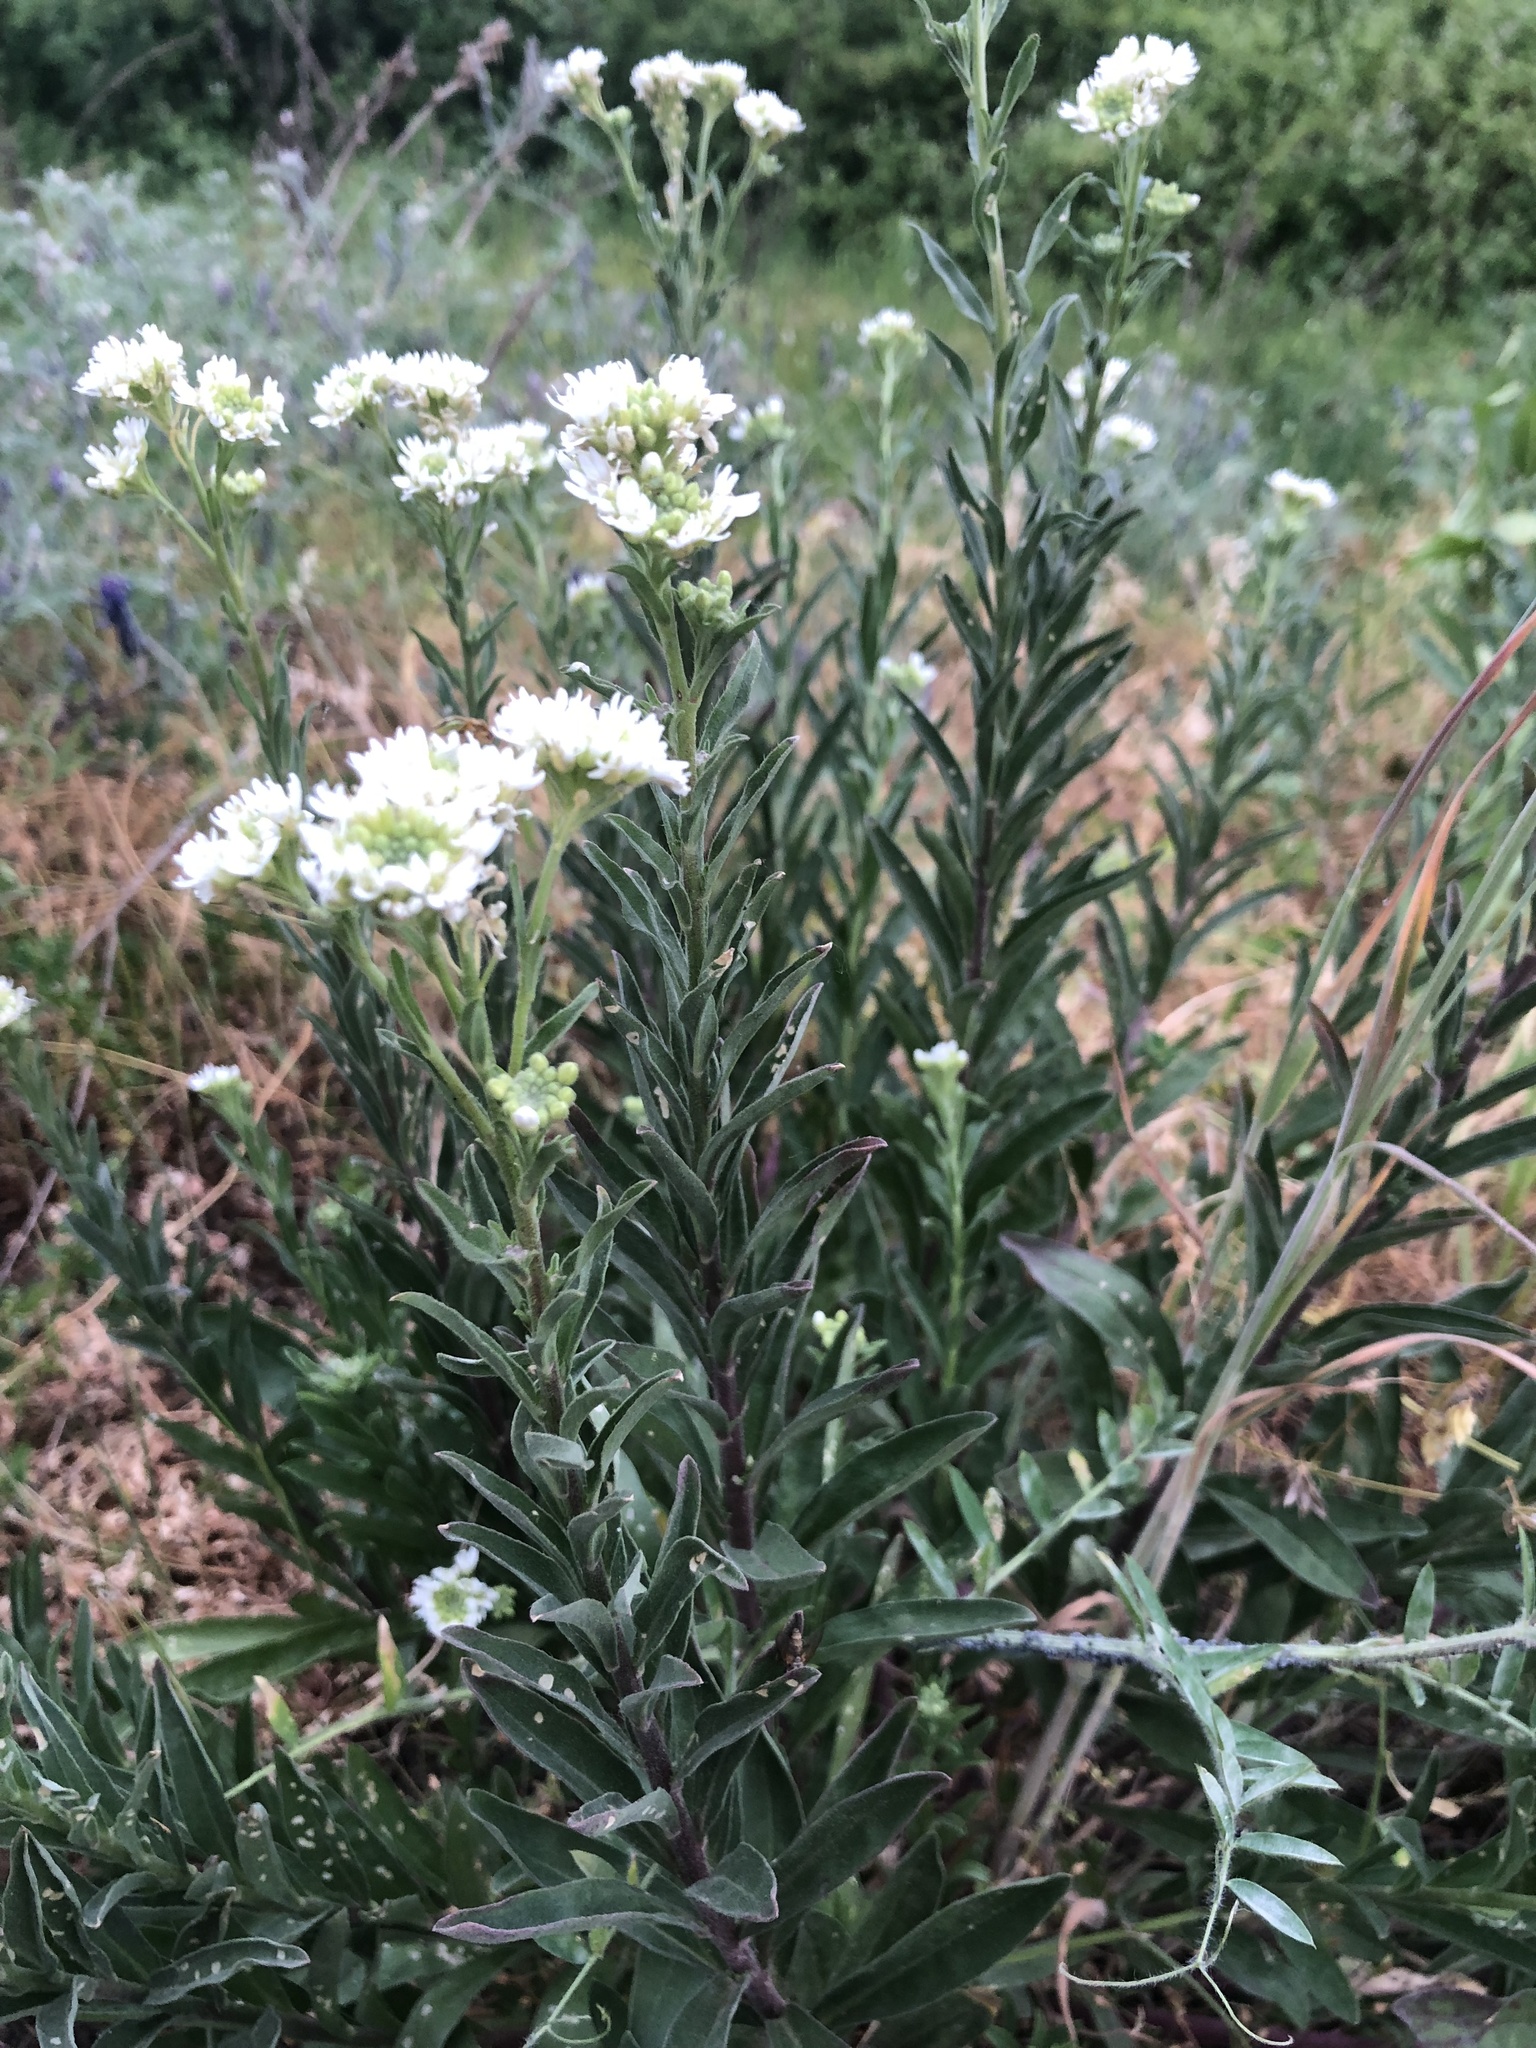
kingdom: Plantae
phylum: Tracheophyta
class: Magnoliopsida
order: Brassicales
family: Brassicaceae
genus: Berteroa
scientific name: Berteroa incana
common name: Hoary alison
